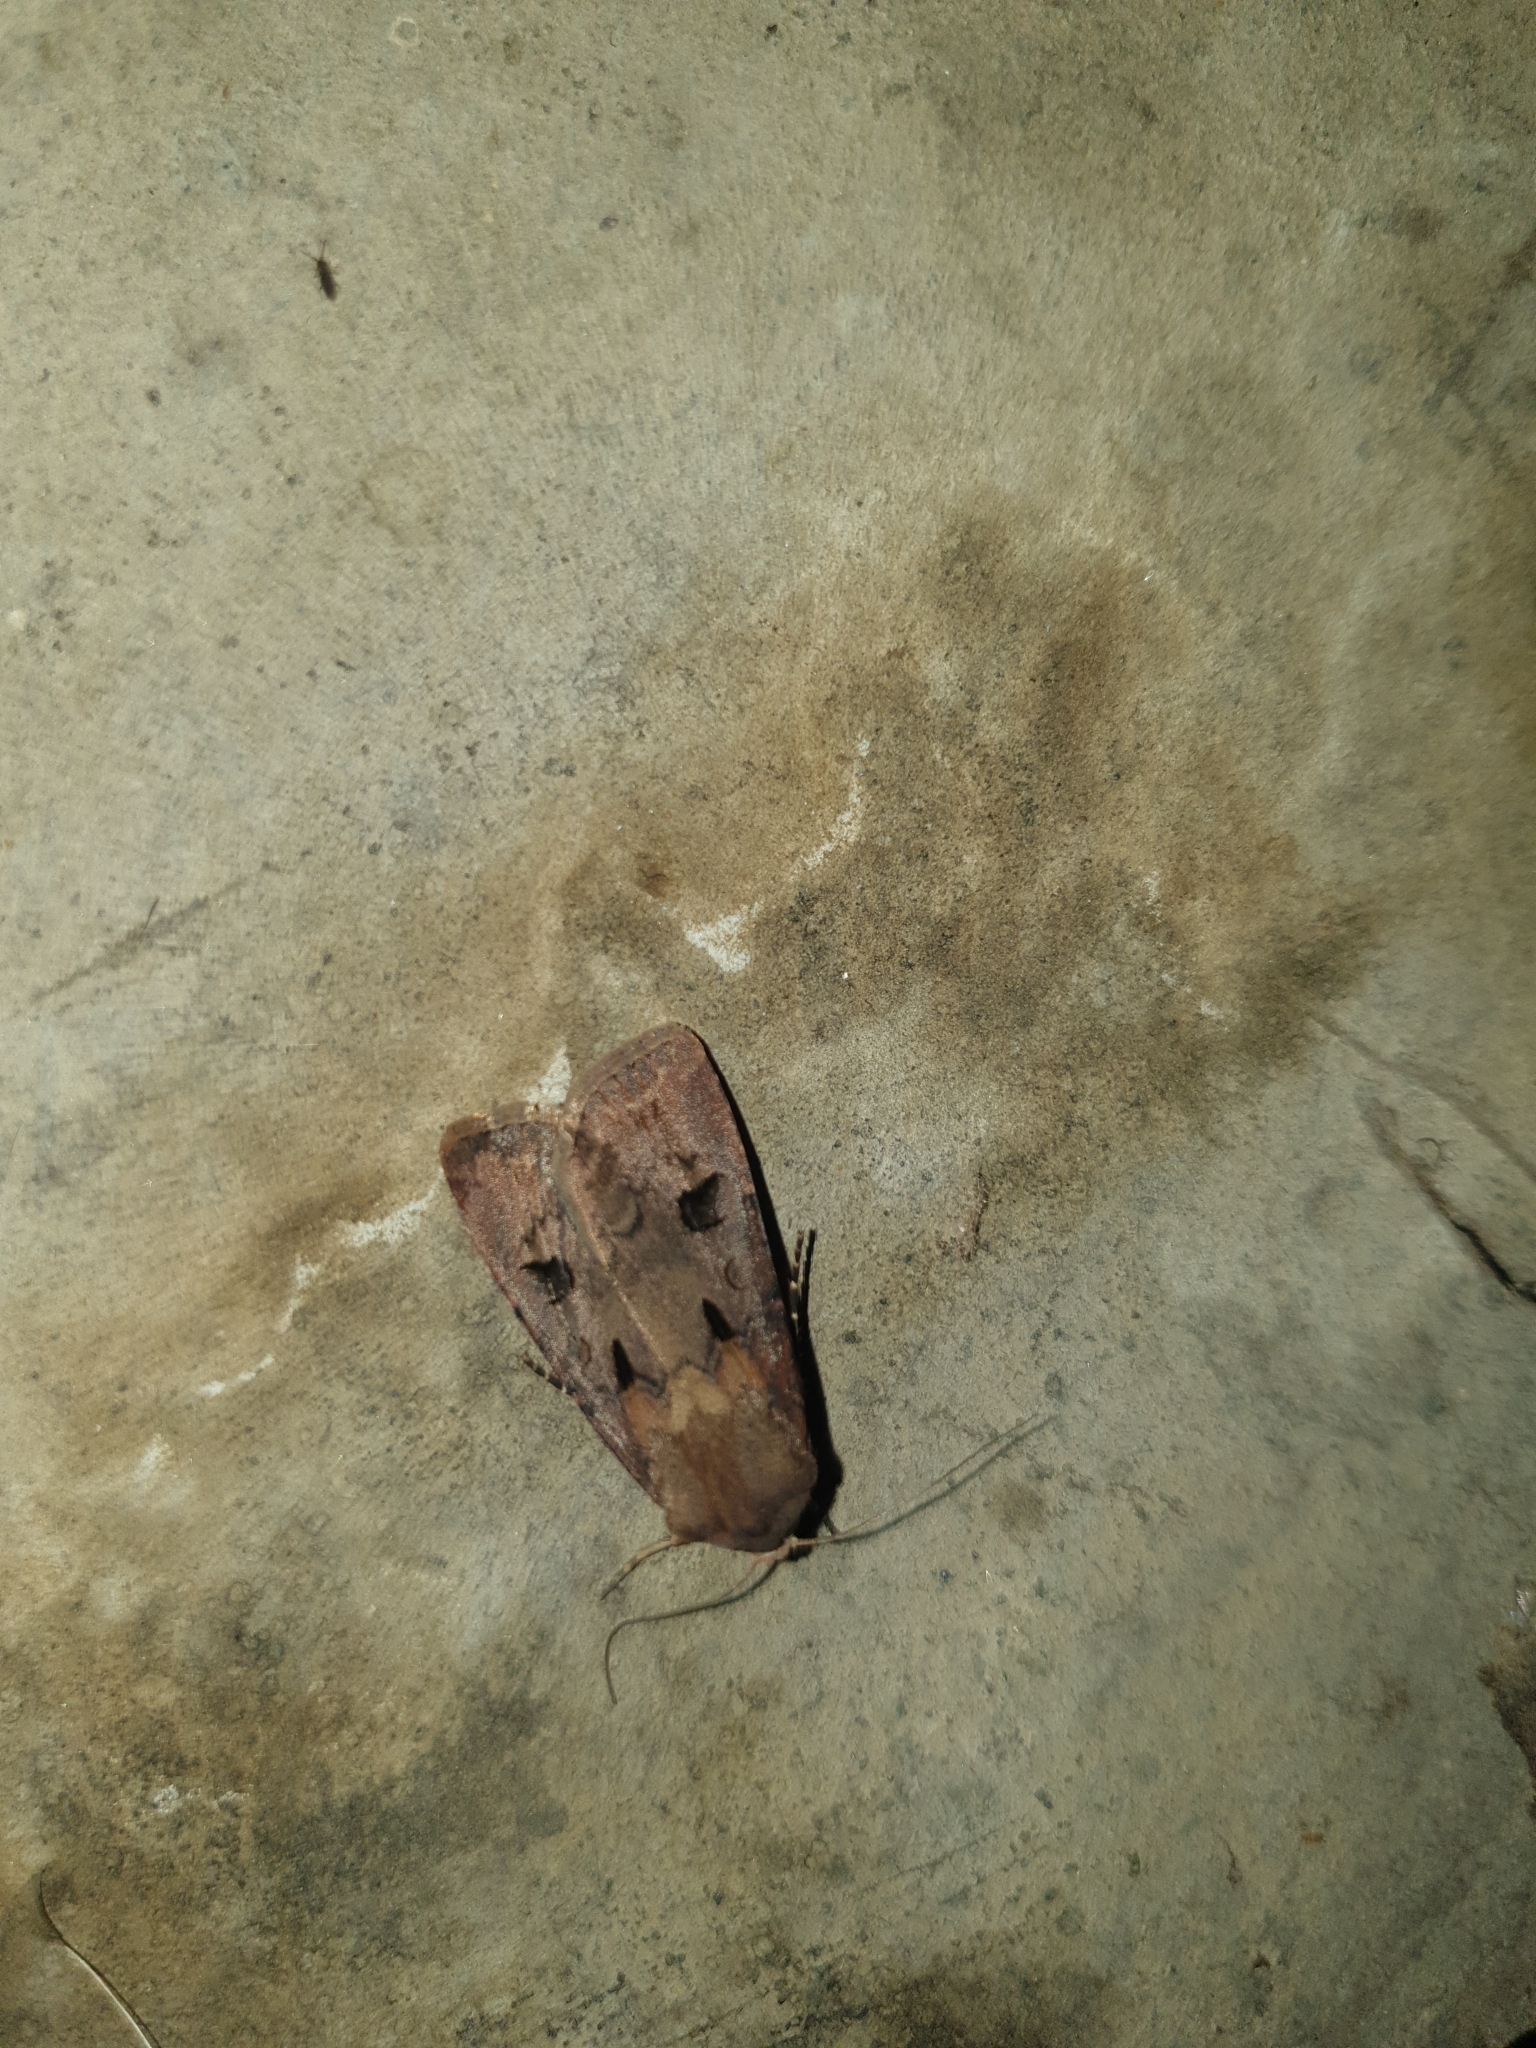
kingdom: Animalia
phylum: Arthropoda
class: Insecta
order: Lepidoptera
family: Noctuidae
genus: Agrotis
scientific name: Agrotis exclamationis
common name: Heart and dart
